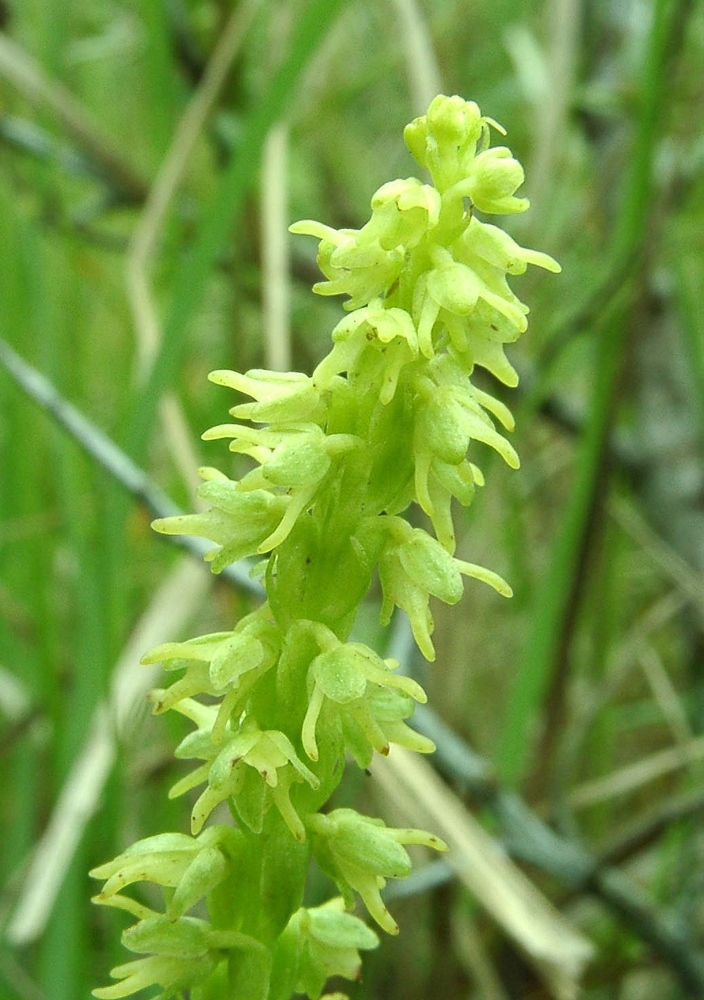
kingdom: Plantae
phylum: Tracheophyta
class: Liliopsida
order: Asparagales
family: Orchidaceae
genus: Herminium
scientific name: Herminium monorchis
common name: Musk orchid
